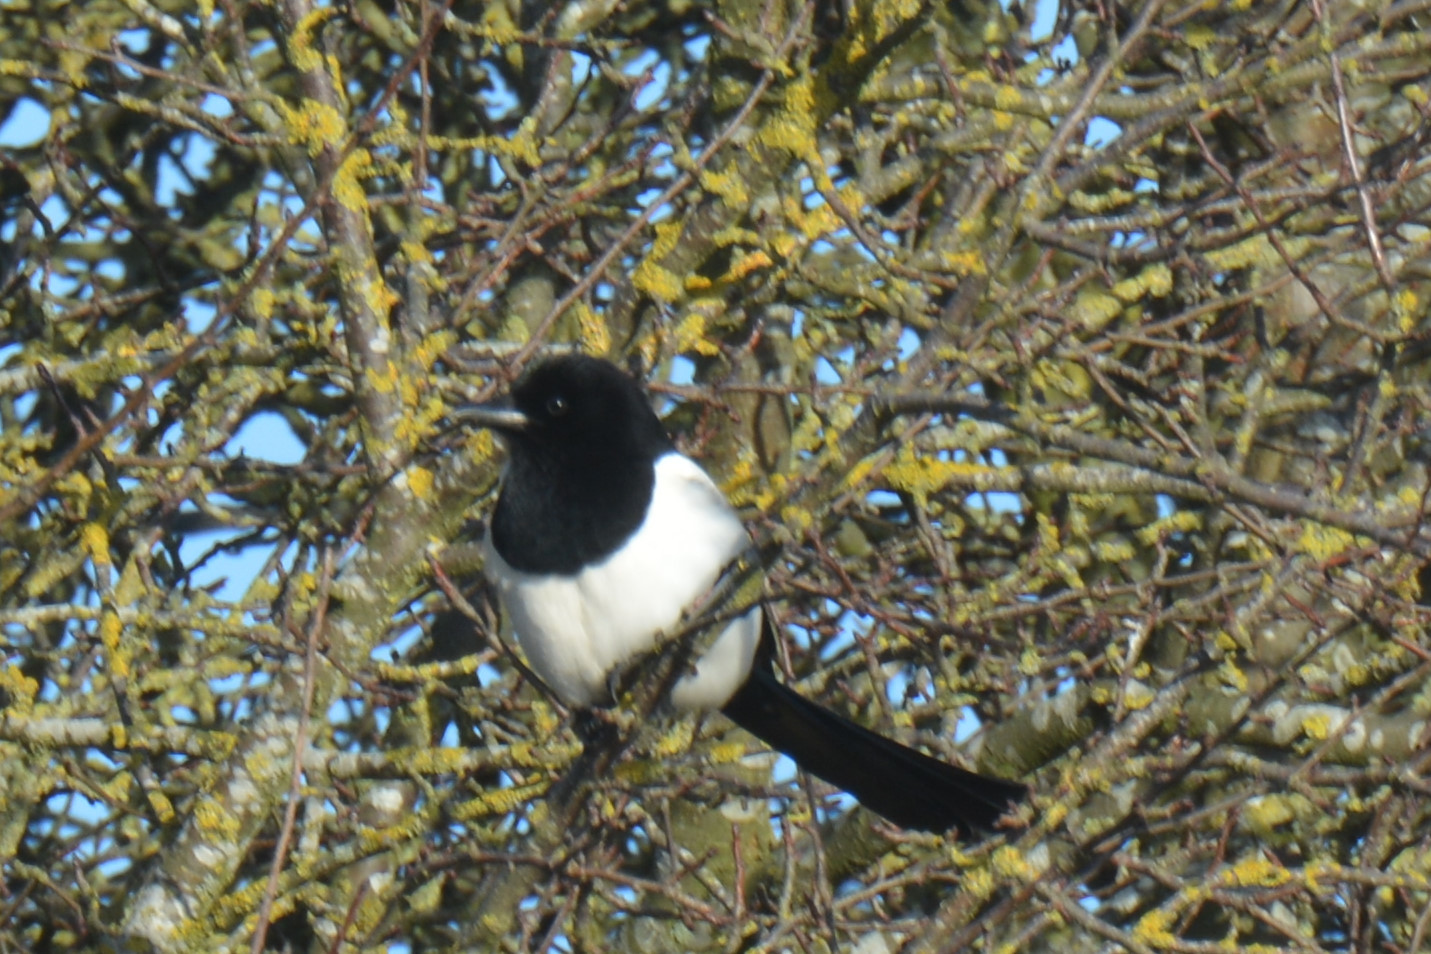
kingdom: Animalia
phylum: Chordata
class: Aves
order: Passeriformes
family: Corvidae
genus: Pica
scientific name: Pica pica
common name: Eurasian magpie
